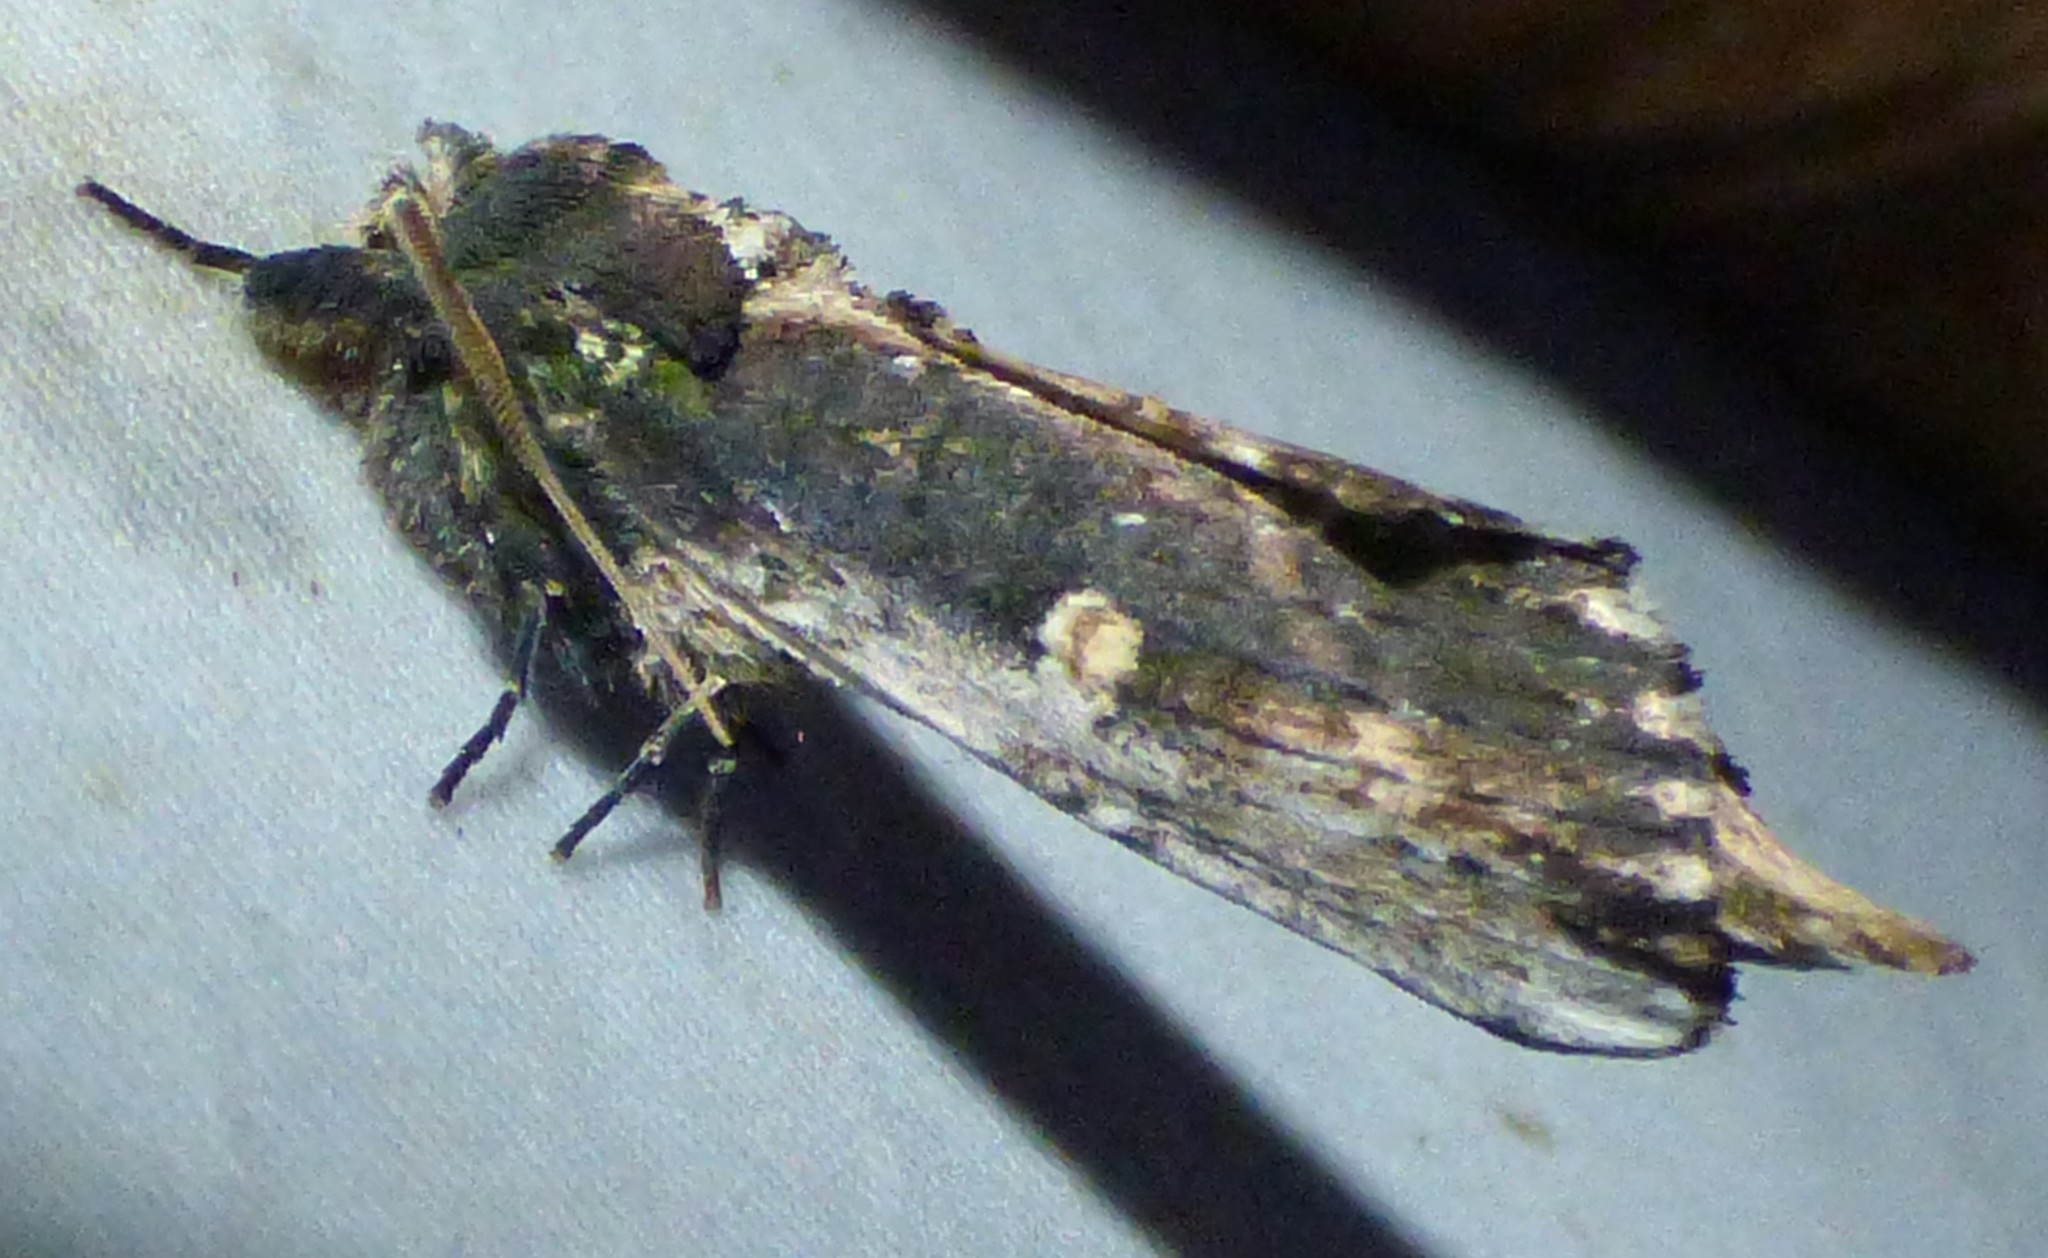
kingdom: Animalia
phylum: Arthropoda
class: Insecta
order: Lepidoptera
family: Notodontidae
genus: Schizura
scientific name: Schizura ipomaeae
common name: Morning-glory prominent
